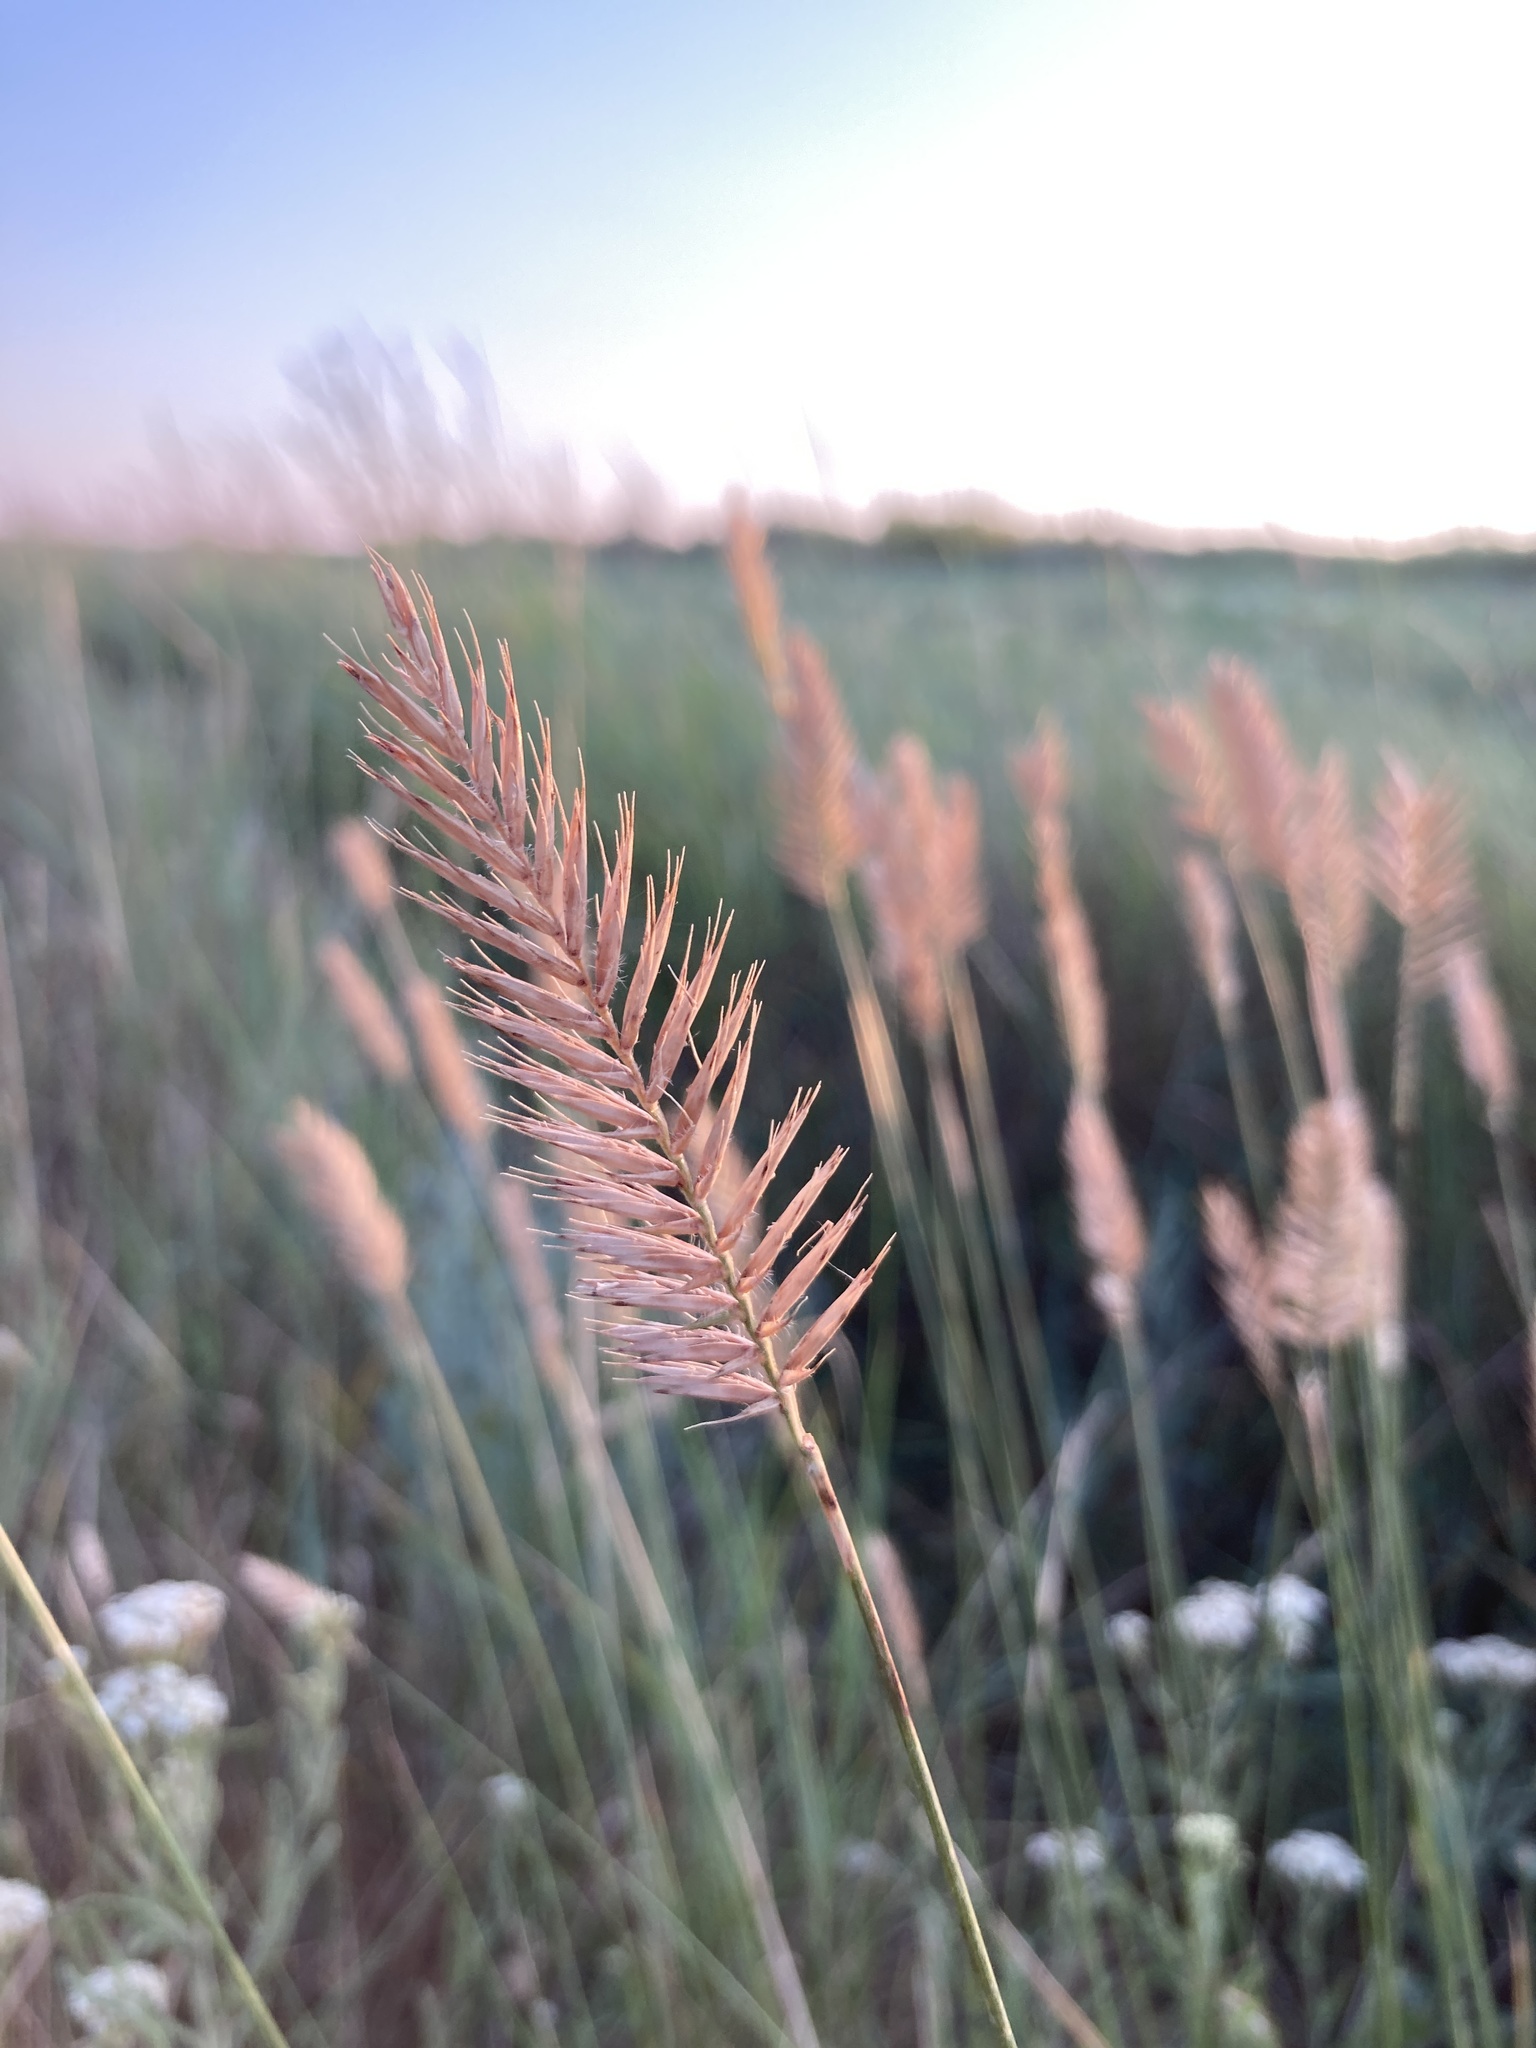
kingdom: Plantae
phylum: Tracheophyta
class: Liliopsida
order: Poales
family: Poaceae
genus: Agropyron
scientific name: Agropyron cristatum
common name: Crested wheatgrass
